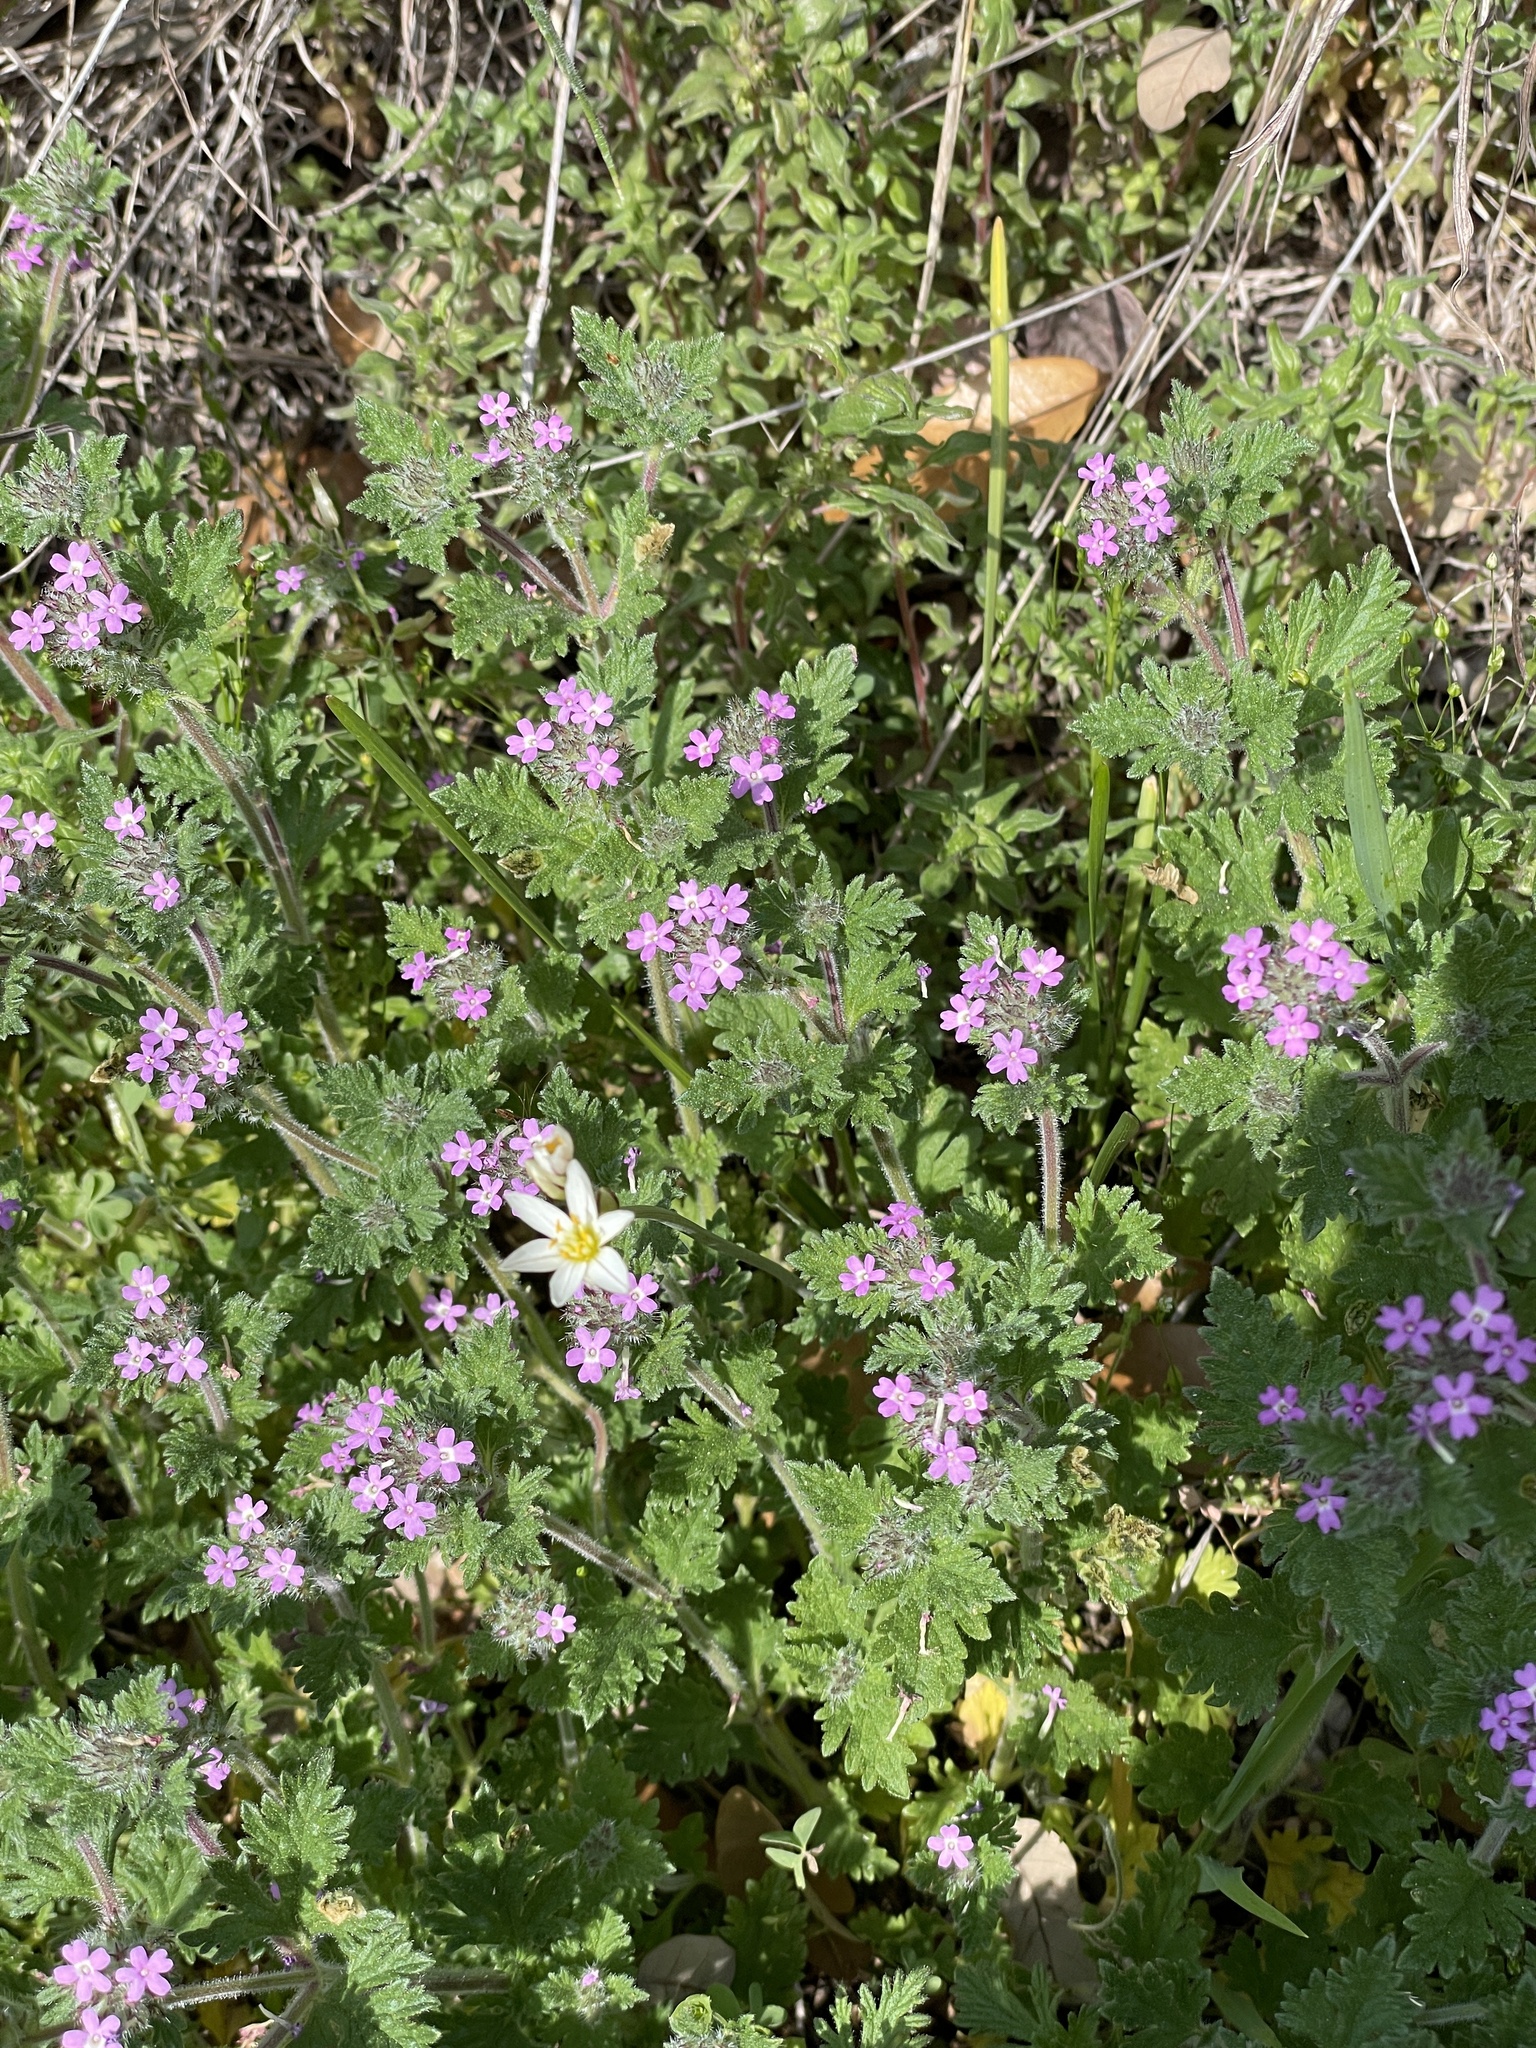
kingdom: Plantae
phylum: Tracheophyta
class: Liliopsida
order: Asparagales
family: Amaryllidaceae
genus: Nothoscordum
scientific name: Nothoscordum bivalve
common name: Crow-poison
